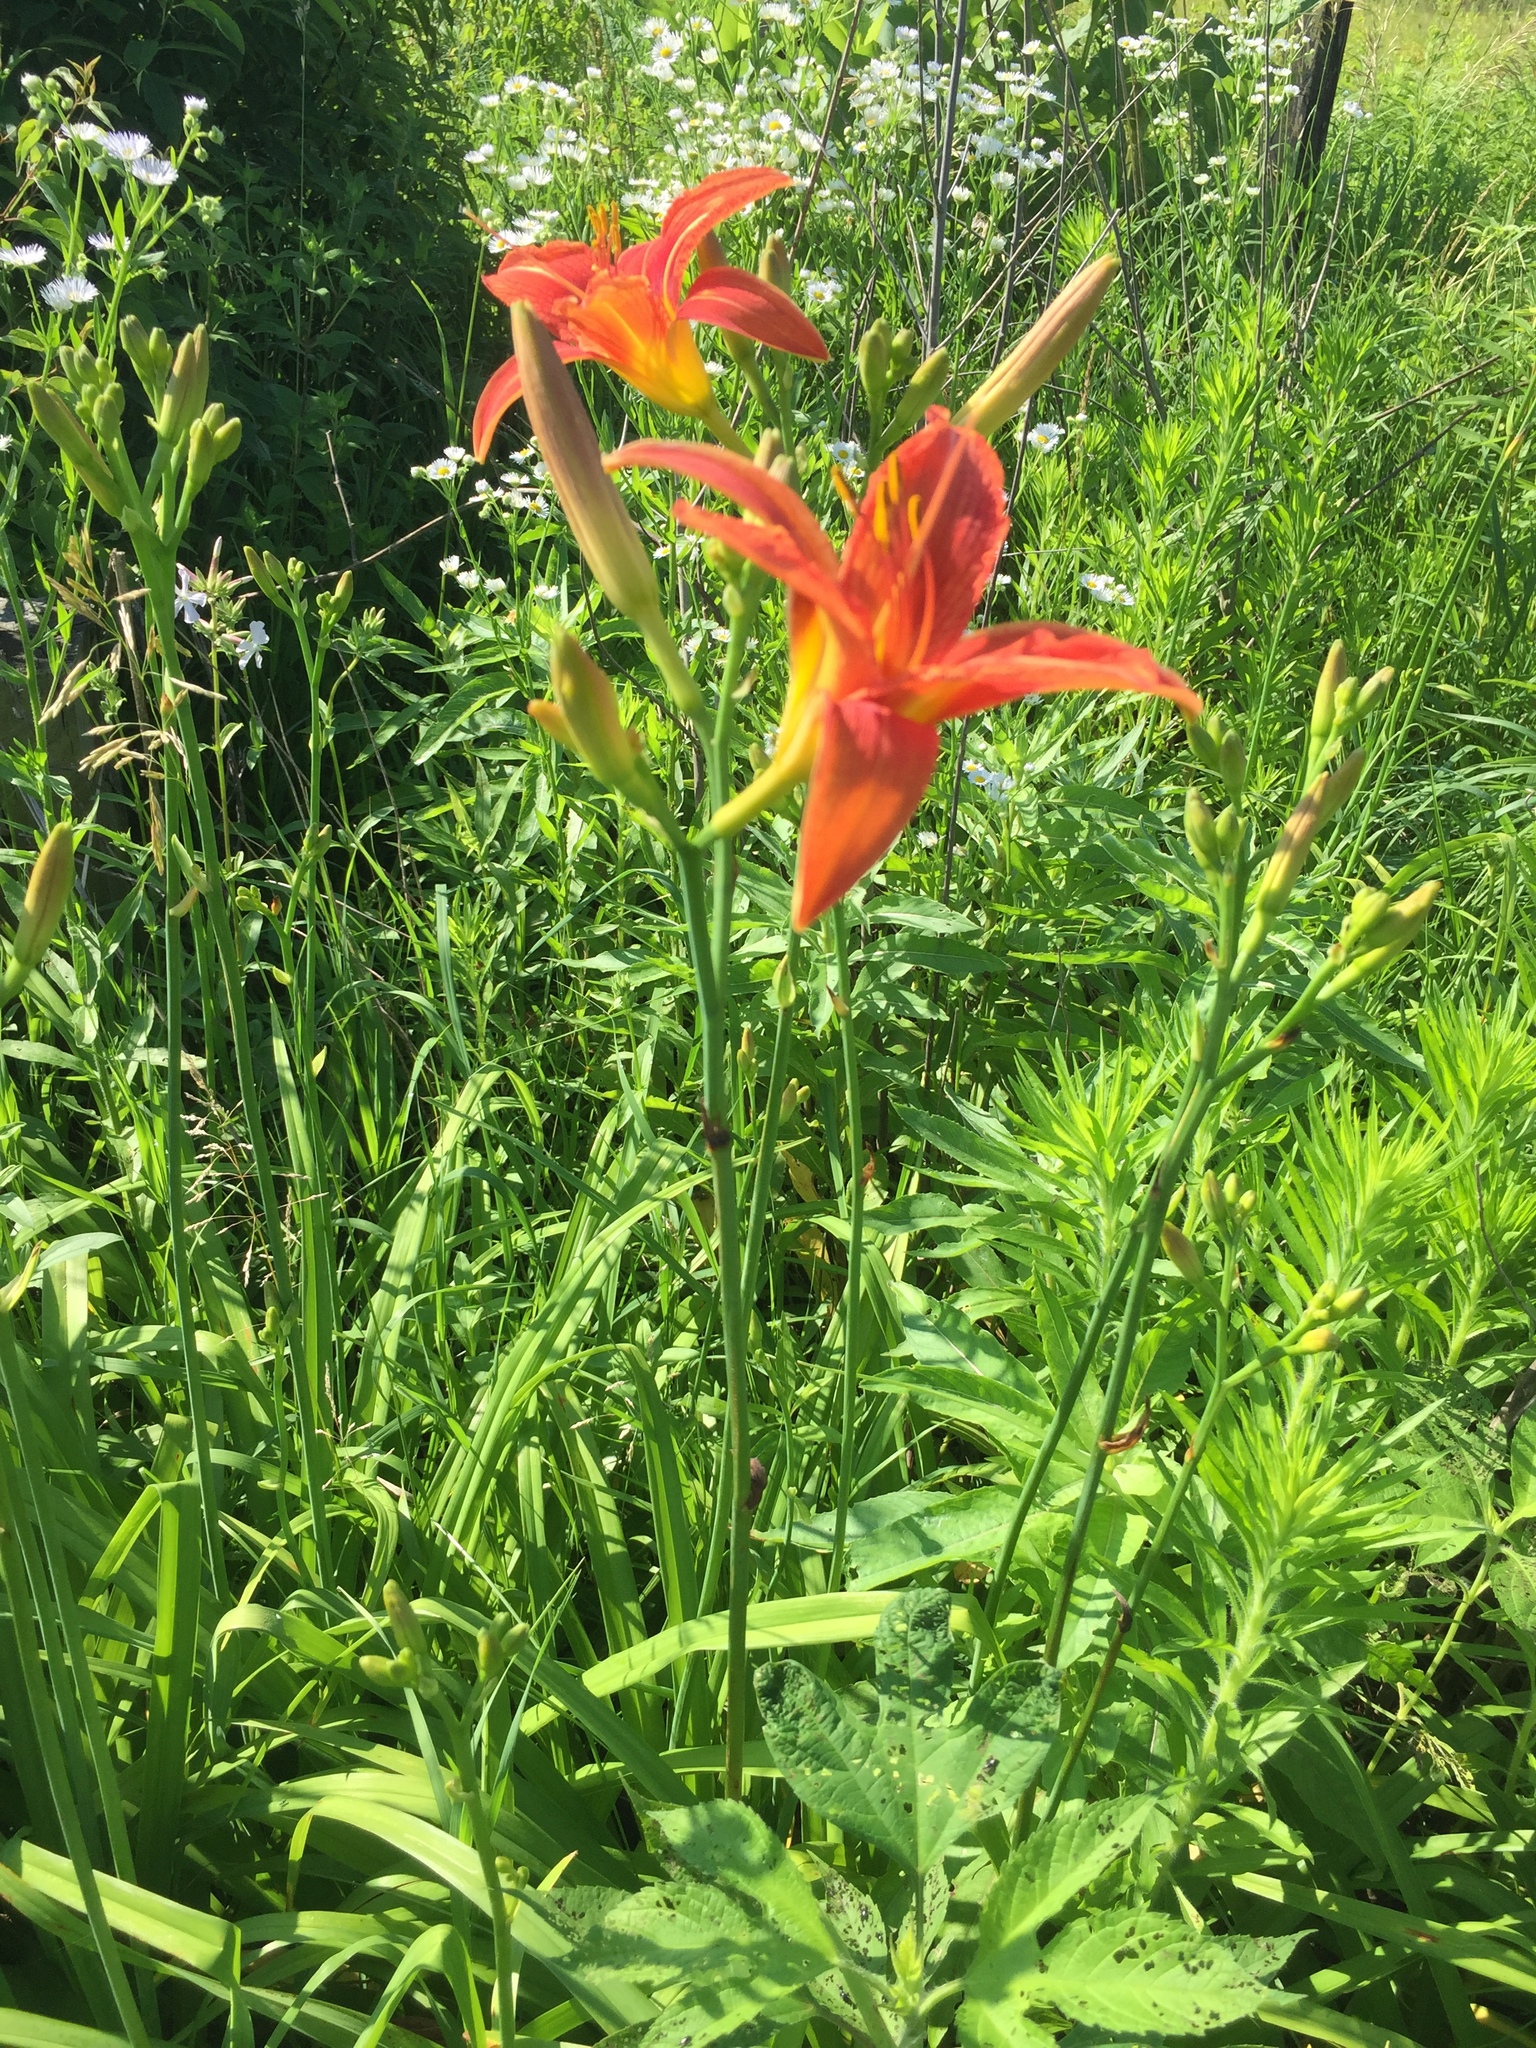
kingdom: Plantae
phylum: Tracheophyta
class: Liliopsida
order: Asparagales
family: Asphodelaceae
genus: Hemerocallis
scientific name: Hemerocallis fulva
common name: Orange day-lily
